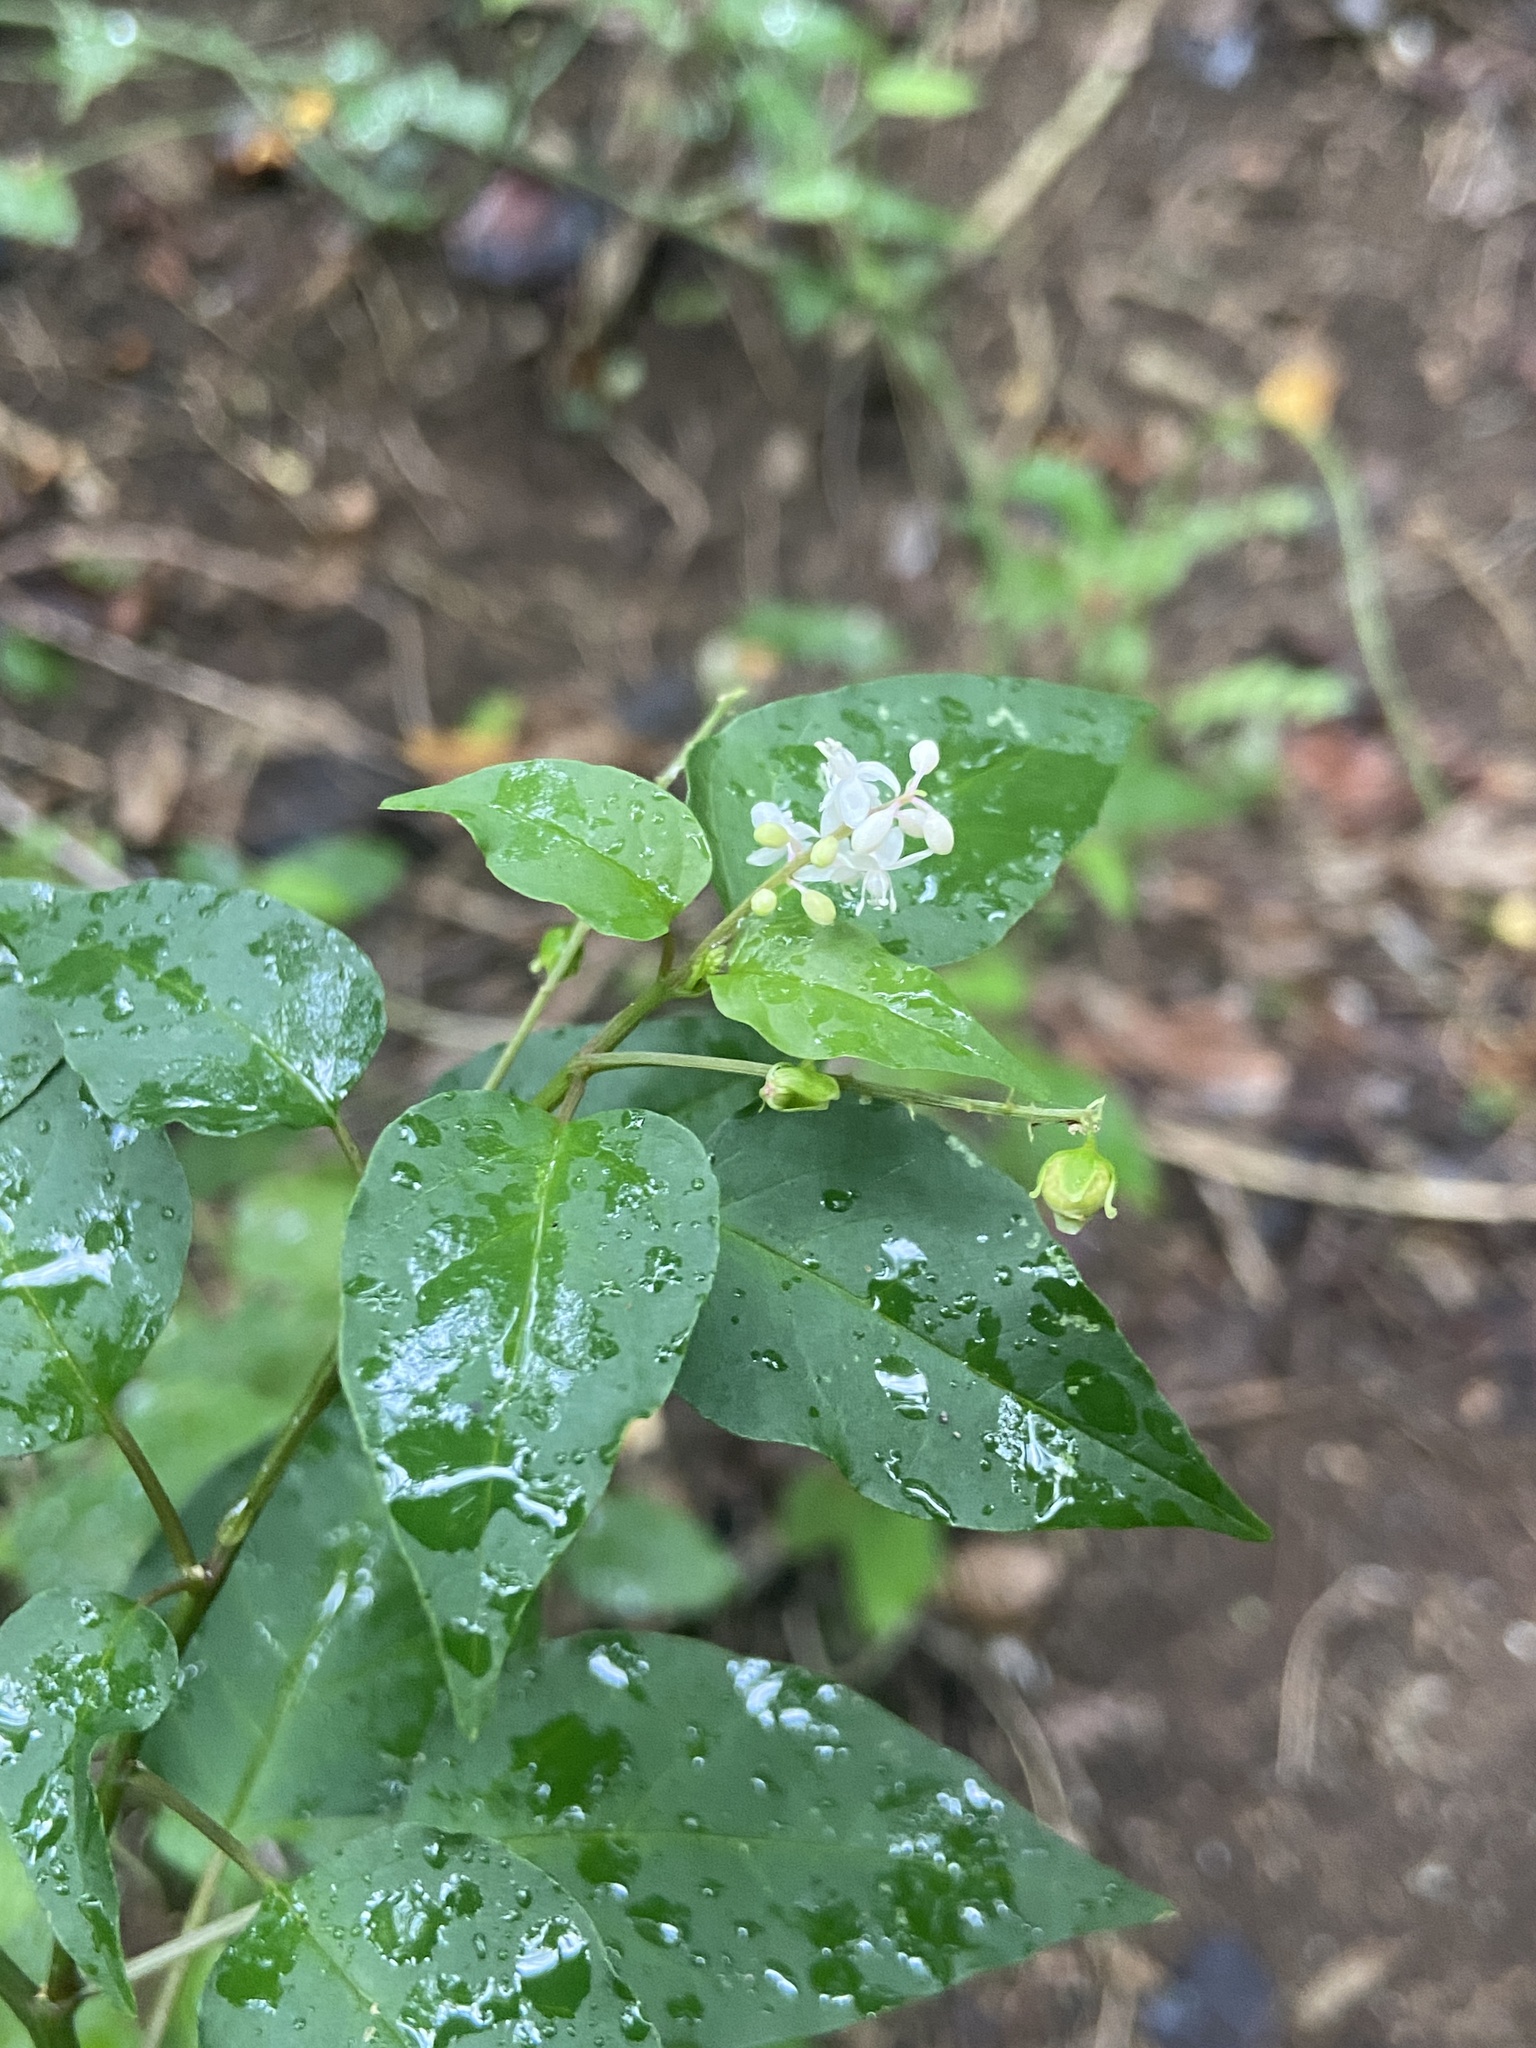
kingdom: Plantae
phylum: Tracheophyta
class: Magnoliopsida
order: Caryophyllales
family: Phytolaccaceae
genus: Rivina
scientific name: Rivina humilis
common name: Rougeplant
